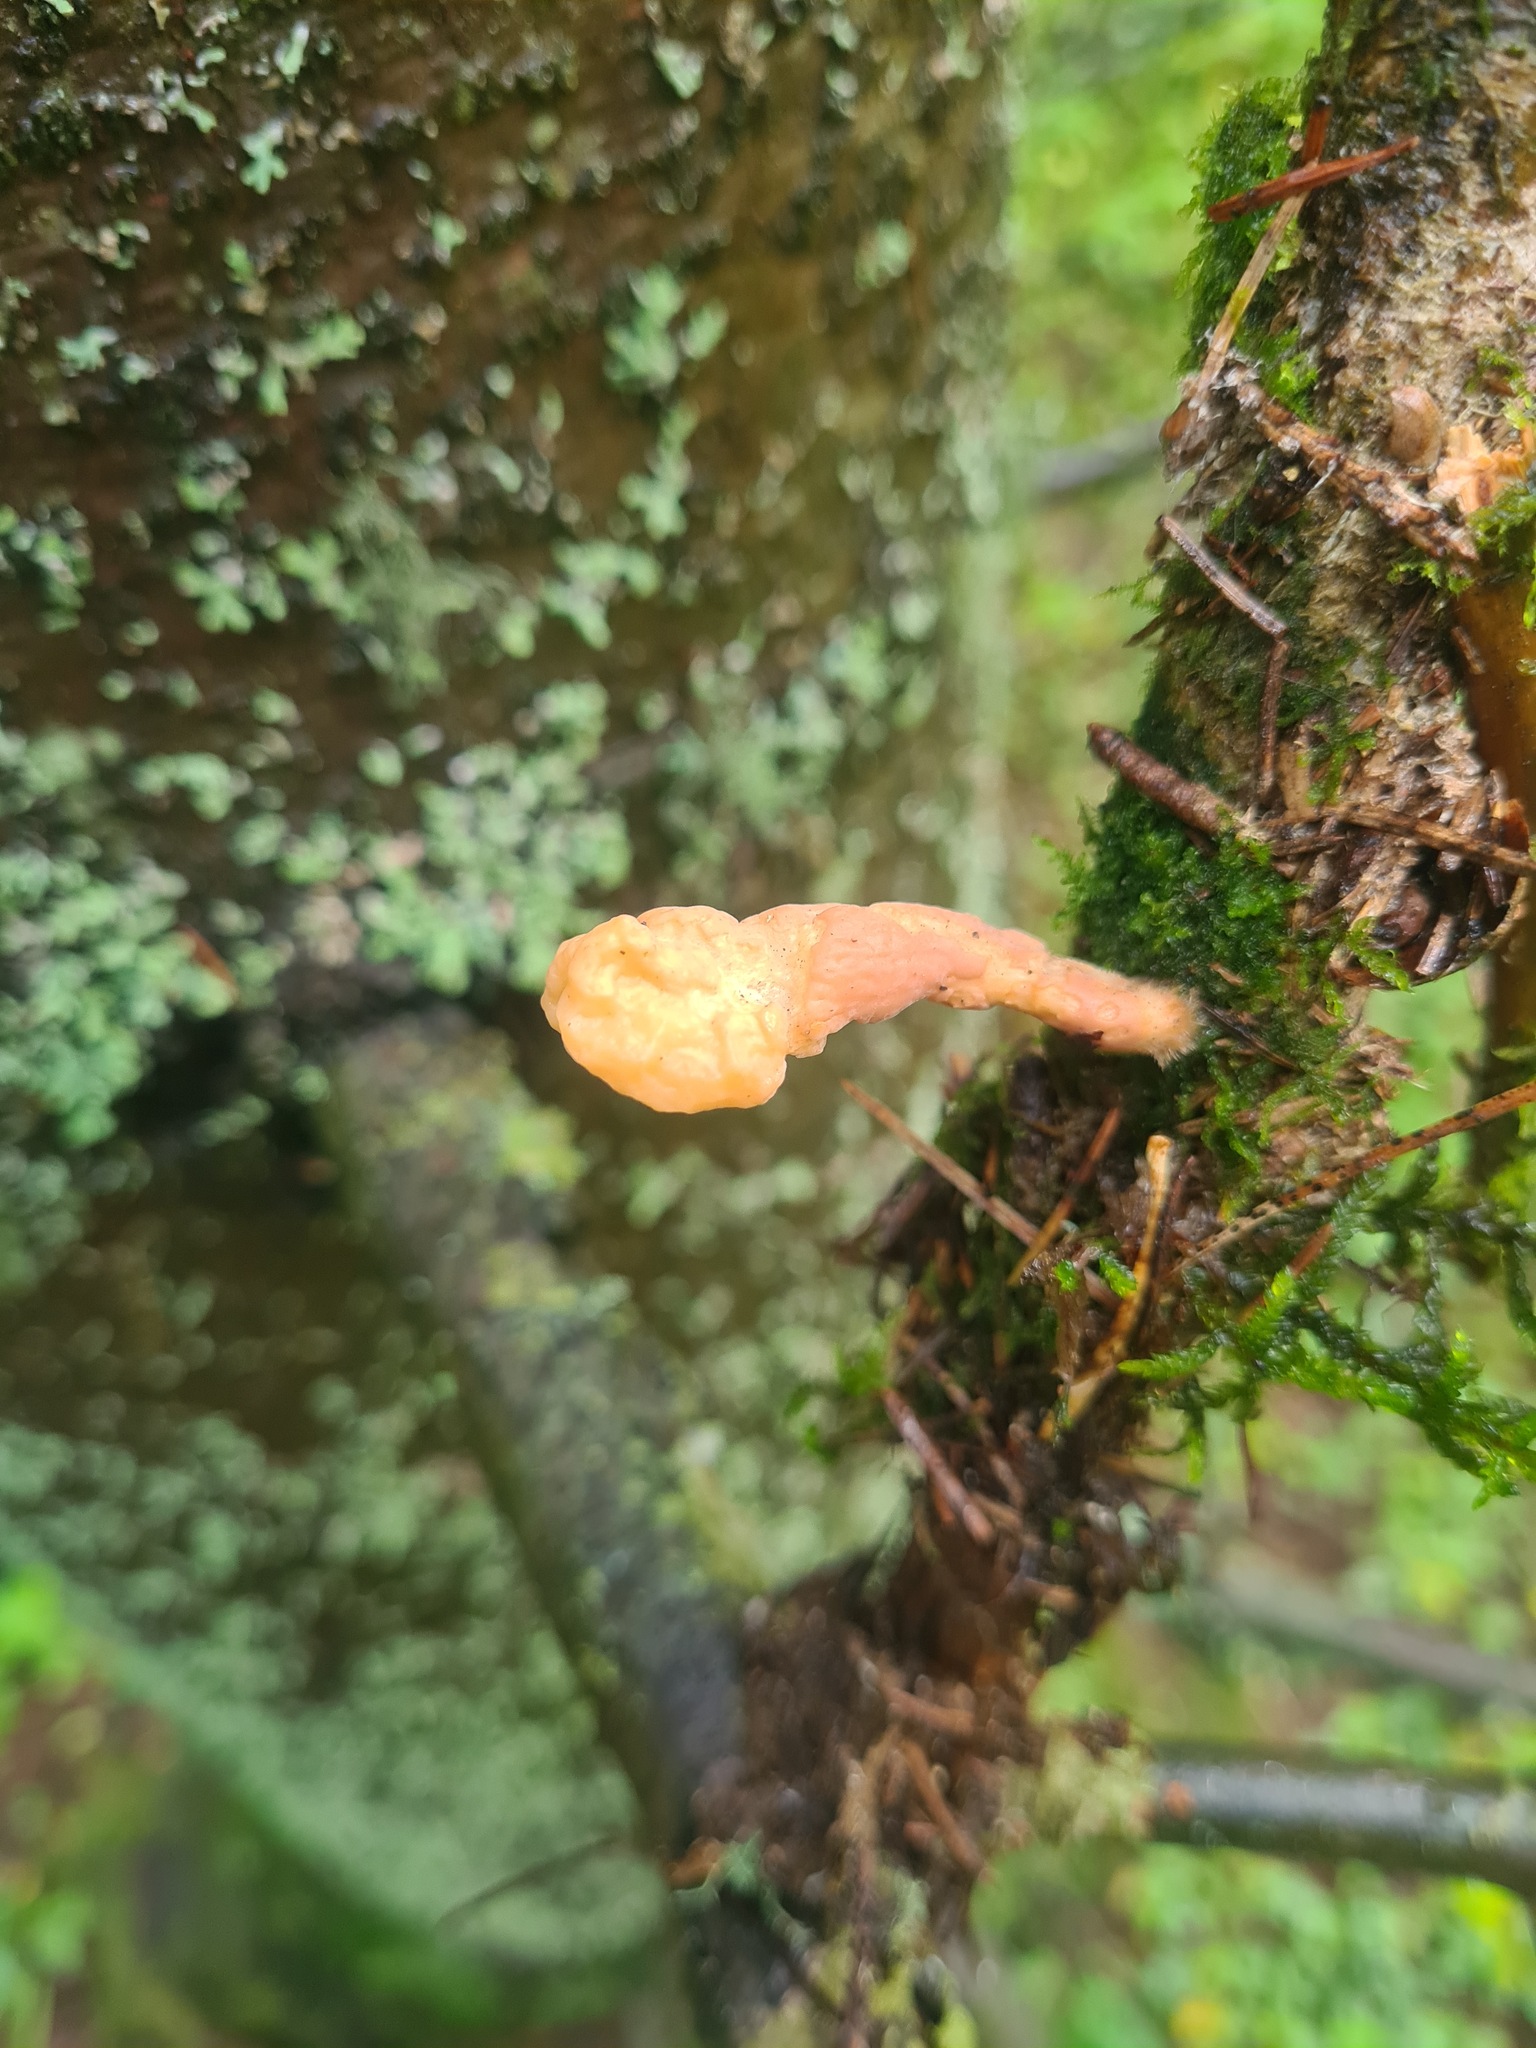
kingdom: Fungi
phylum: Ascomycota
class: Sordariomycetes
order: Hypocreales
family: Cordycipitaceae
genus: Cordyceps
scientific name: Cordyceps militaris
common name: Scarlet caterpillar fungus
